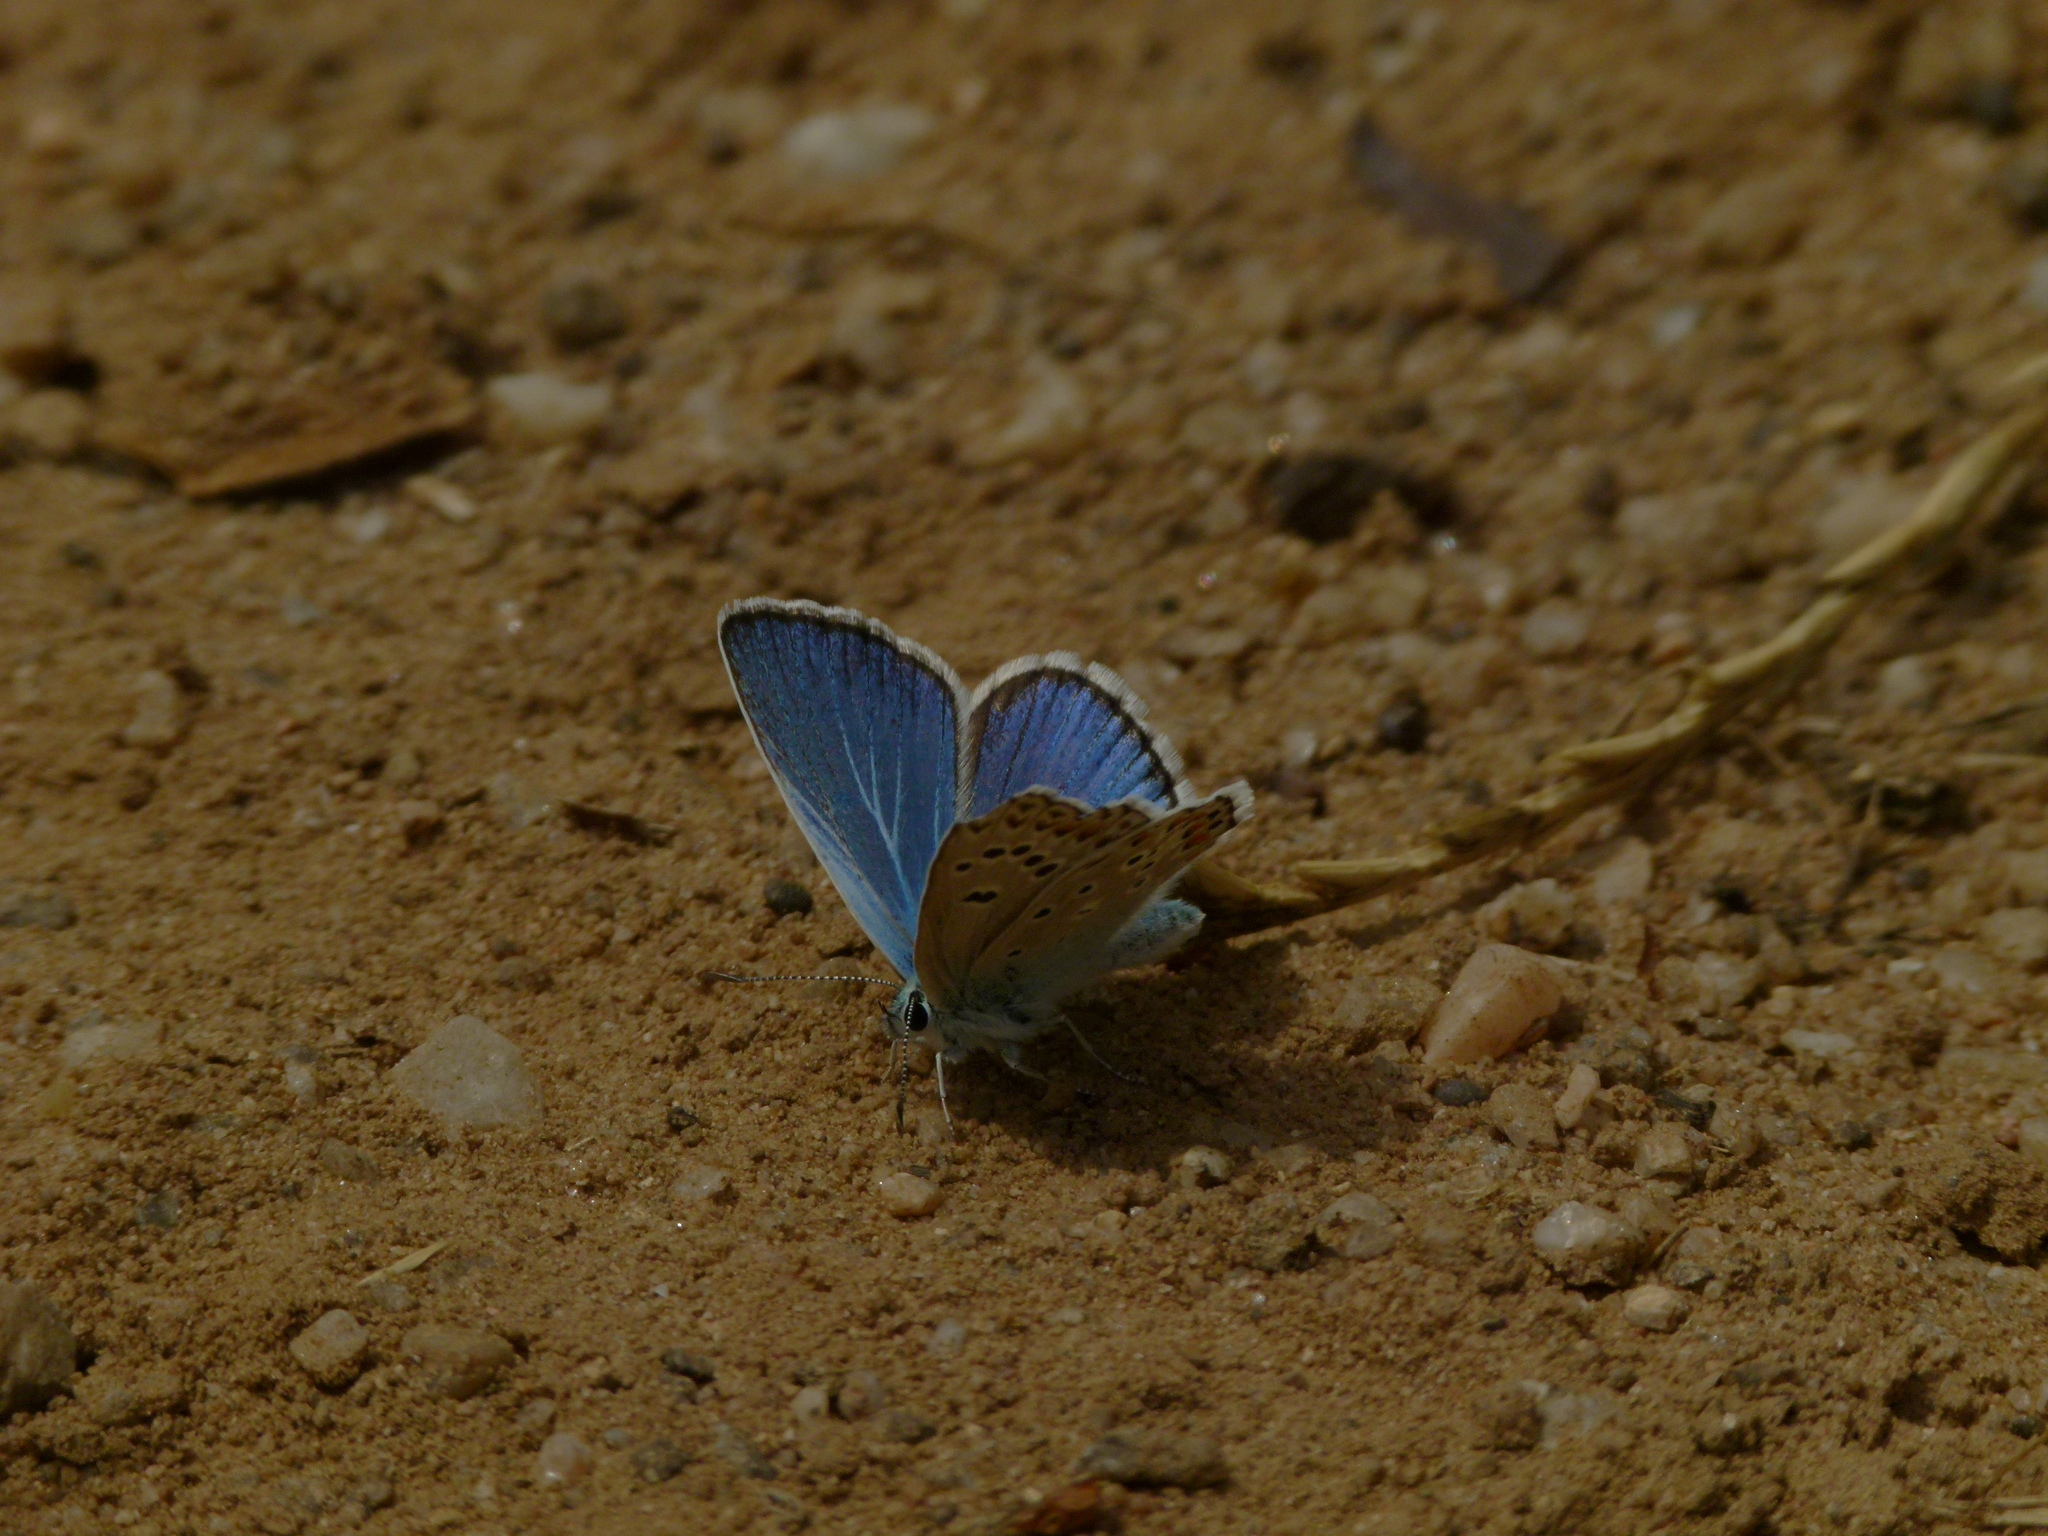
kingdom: Animalia
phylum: Arthropoda
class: Insecta
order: Lepidoptera
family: Lycaenidae
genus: Plebicula
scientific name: Plebicula escheri
